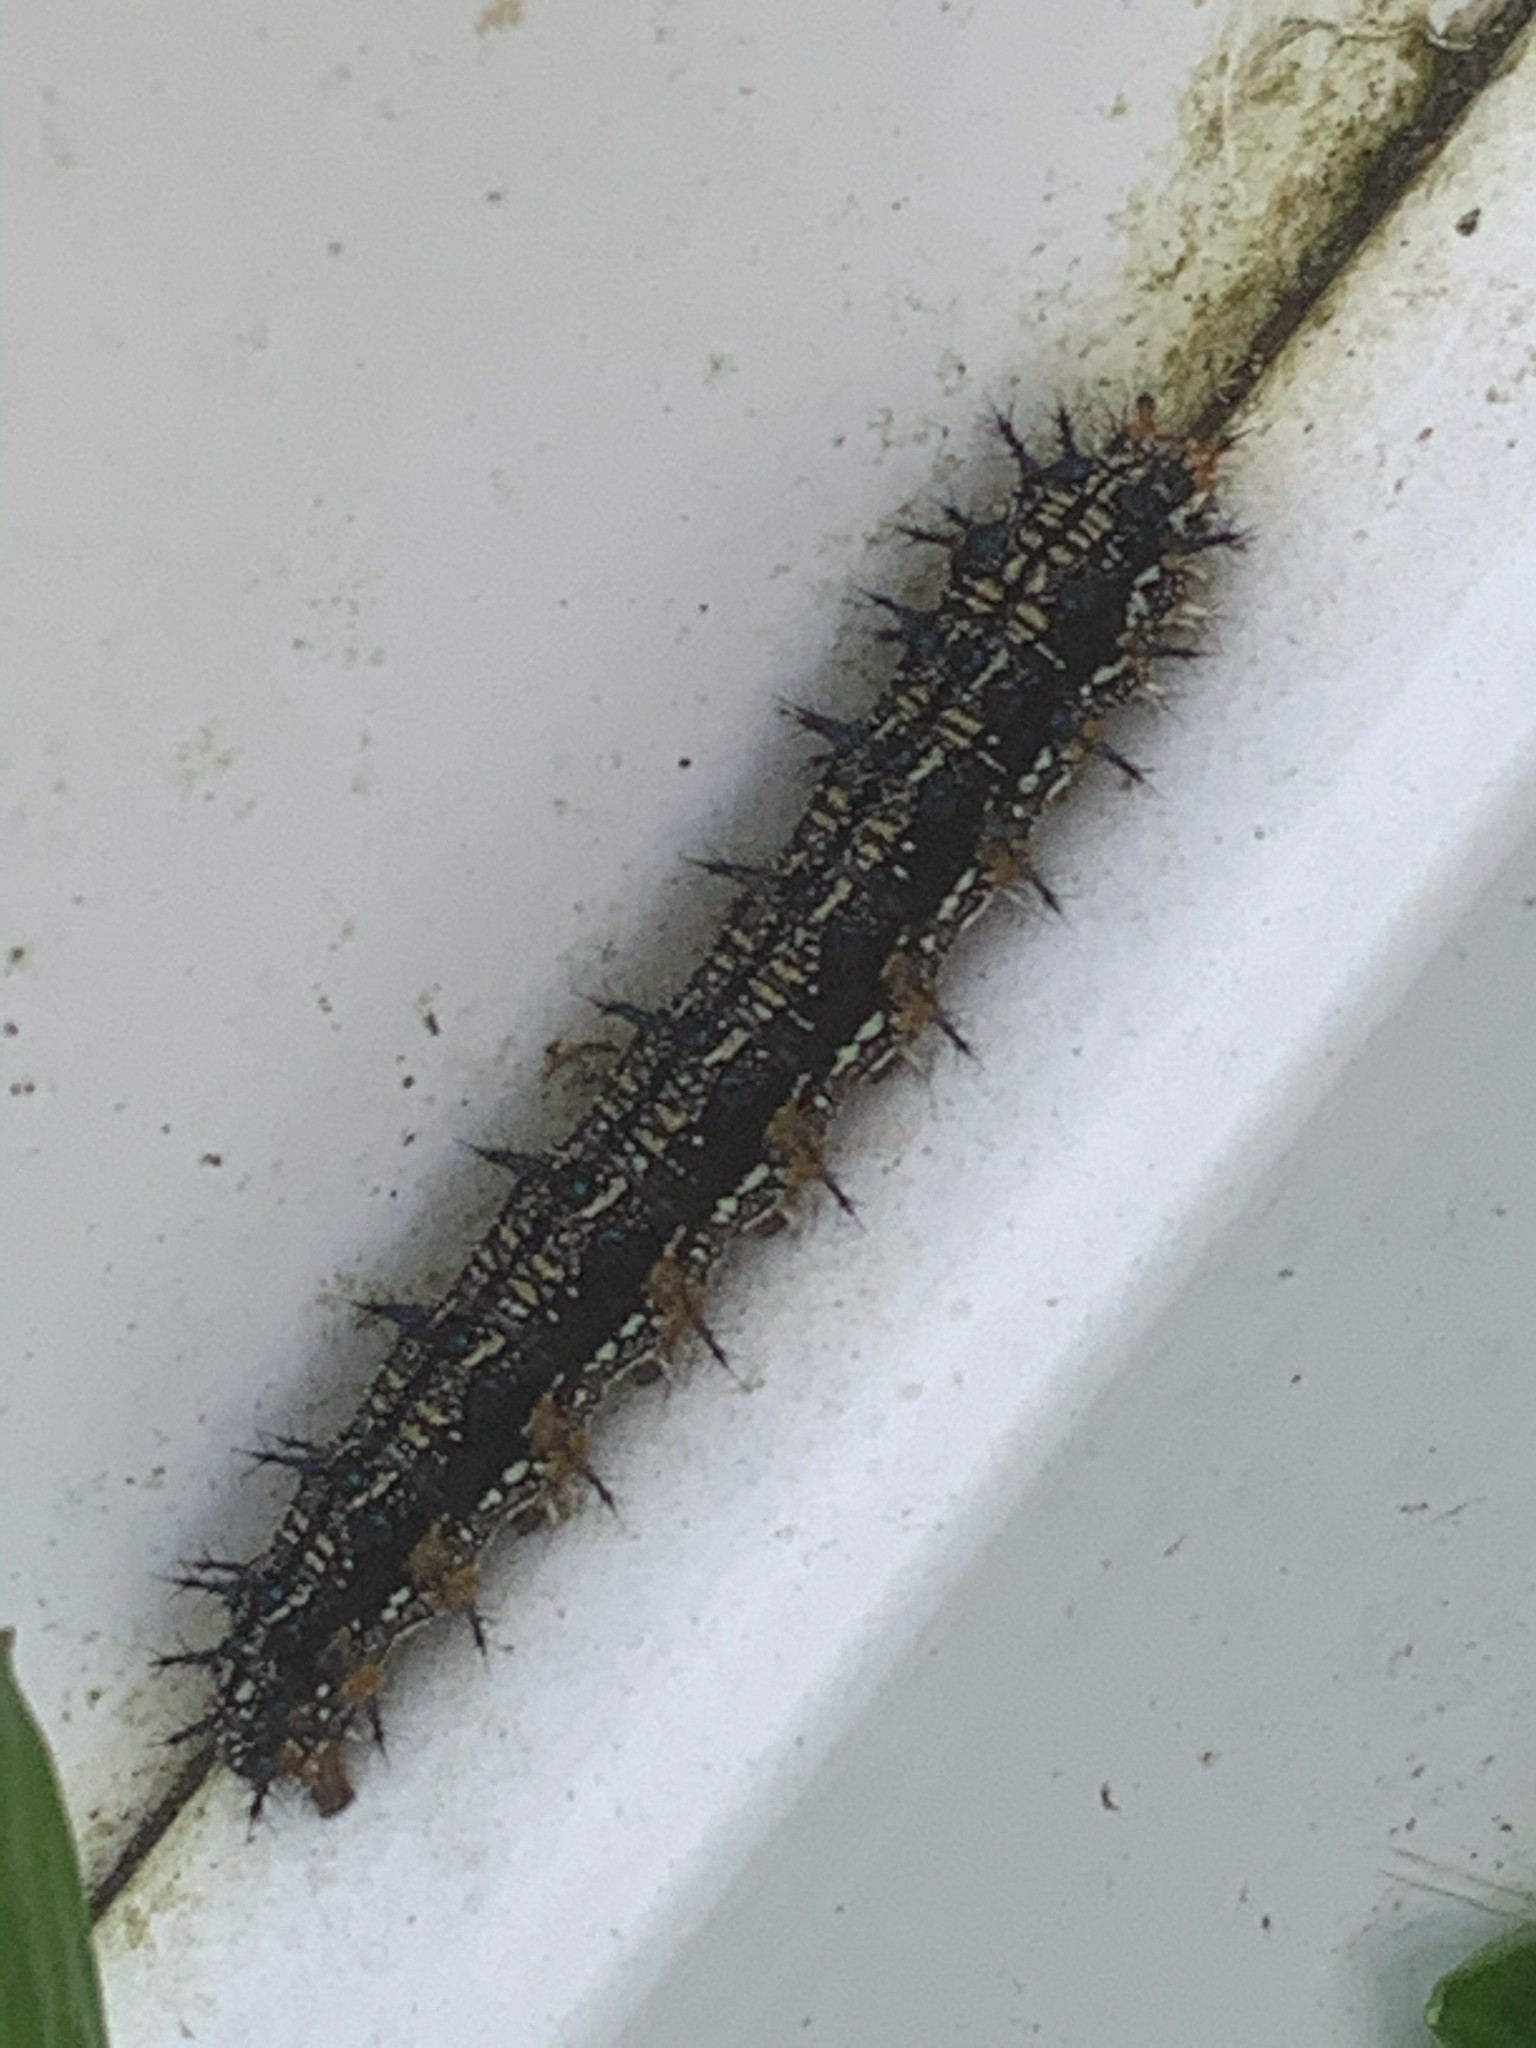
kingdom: Animalia
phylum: Arthropoda
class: Insecta
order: Lepidoptera
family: Nymphalidae
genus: Junonia
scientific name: Junonia coenia
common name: Common buckeye
